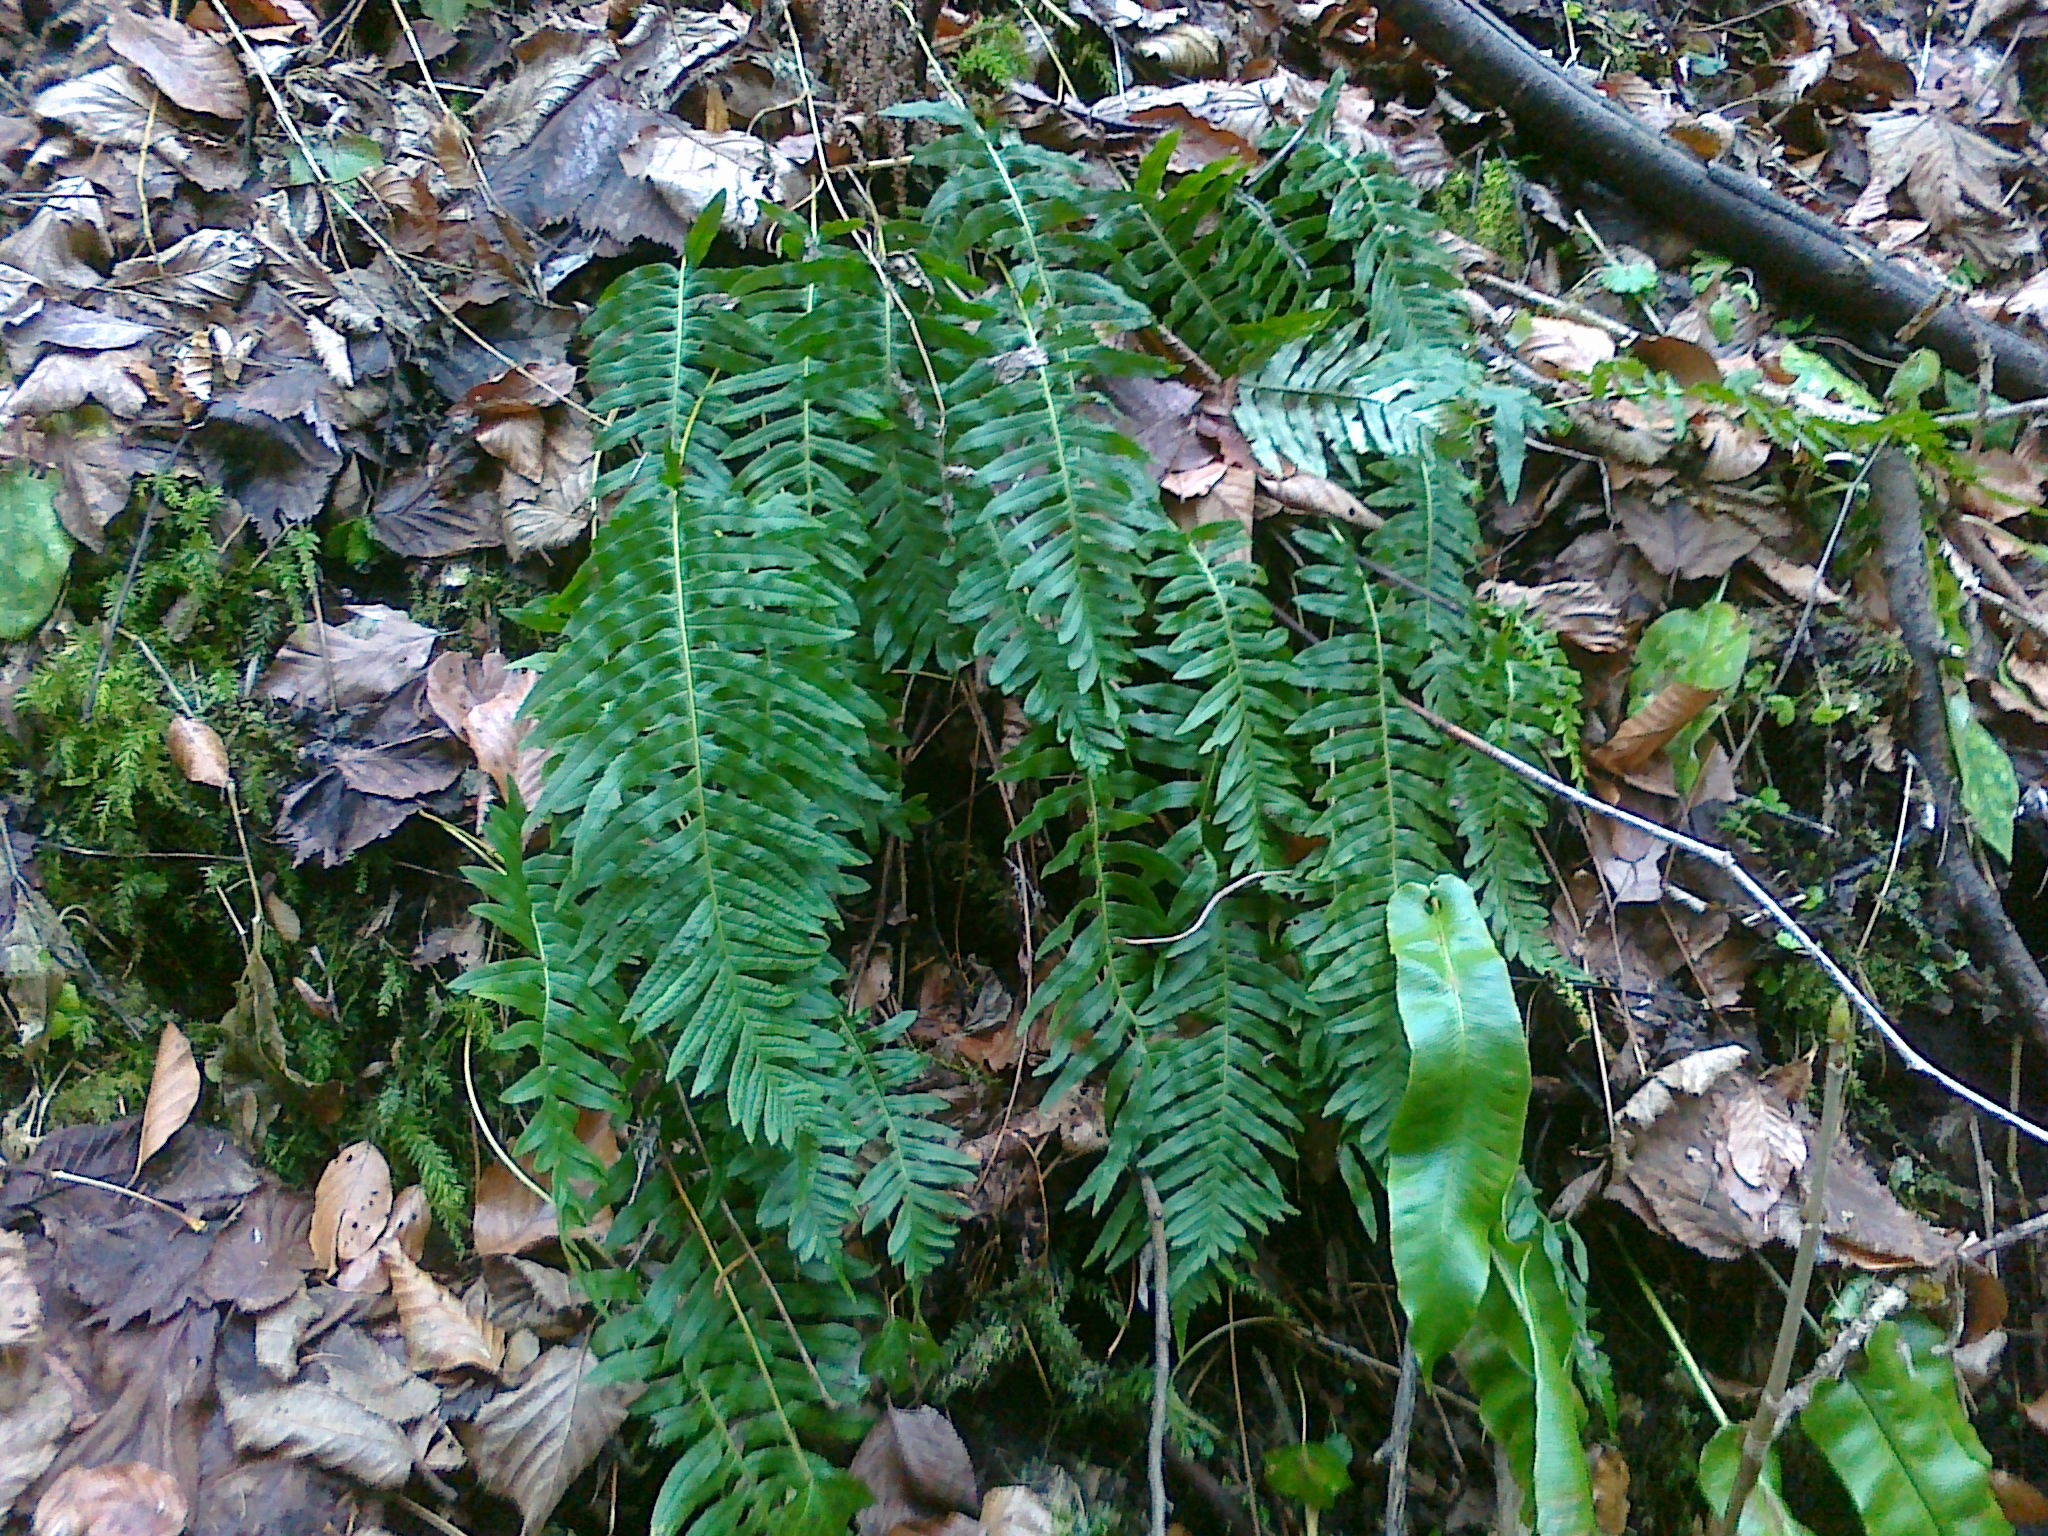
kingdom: Plantae
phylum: Tracheophyta
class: Polypodiopsida
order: Polypodiales
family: Polypodiaceae
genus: Polypodium
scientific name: Polypodium interjectum
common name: Intermediate polypody
